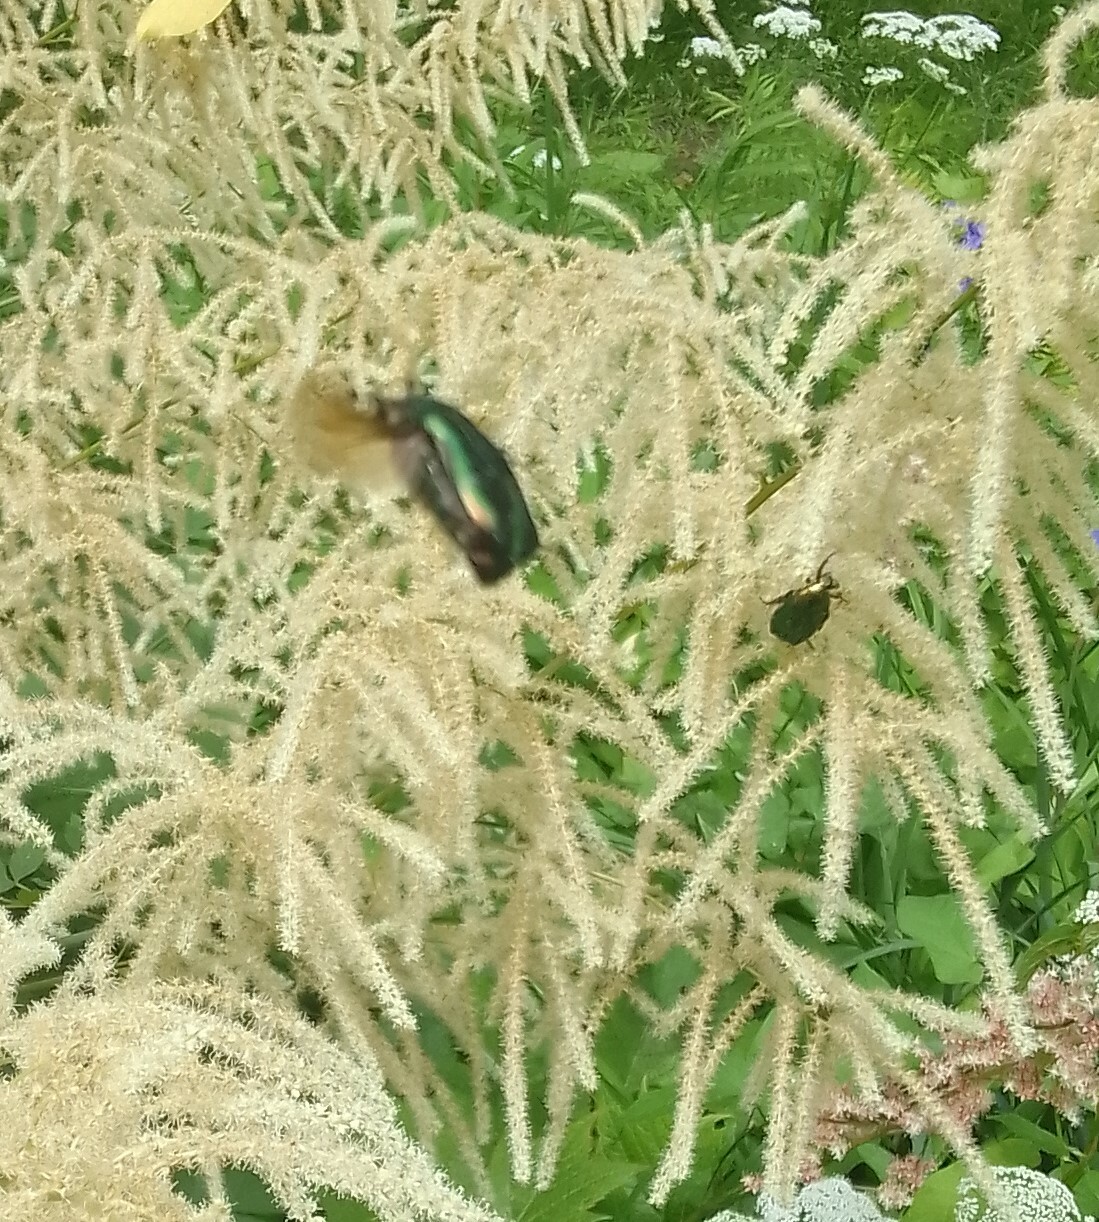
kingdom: Animalia
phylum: Arthropoda
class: Insecta
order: Coleoptera
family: Scarabaeidae
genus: Cetonia
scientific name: Cetonia aurata
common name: Rose chafer
